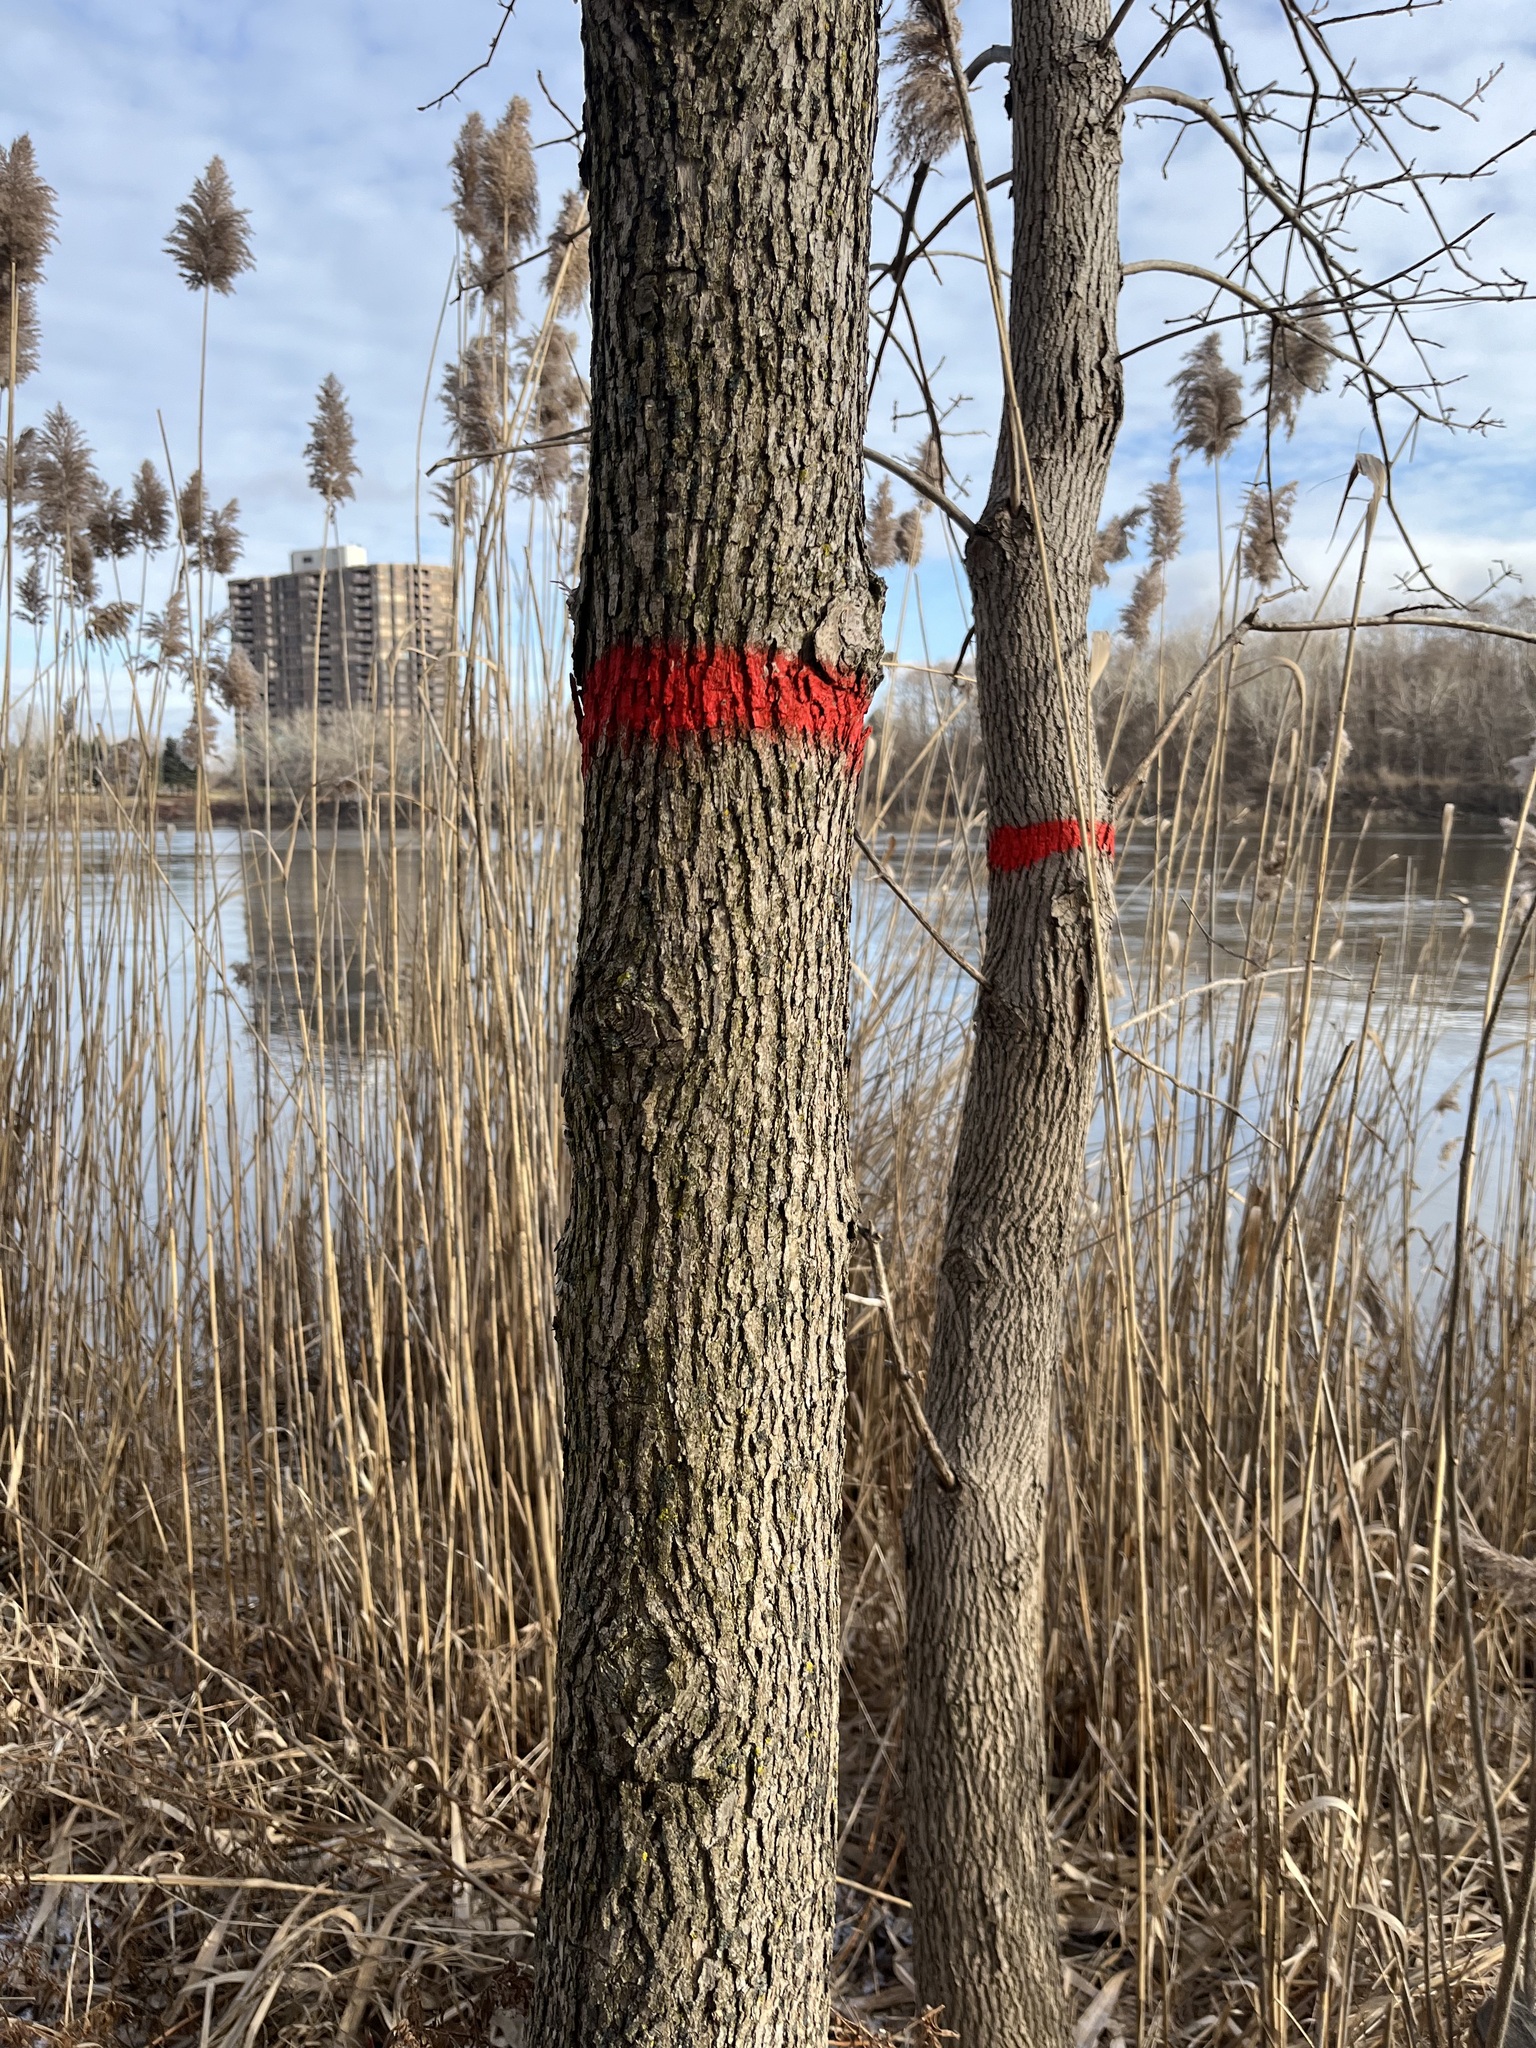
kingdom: Plantae
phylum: Tracheophyta
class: Magnoliopsida
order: Lamiales
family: Oleaceae
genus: Fraxinus
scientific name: Fraxinus pennsylvanica
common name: Green ash
